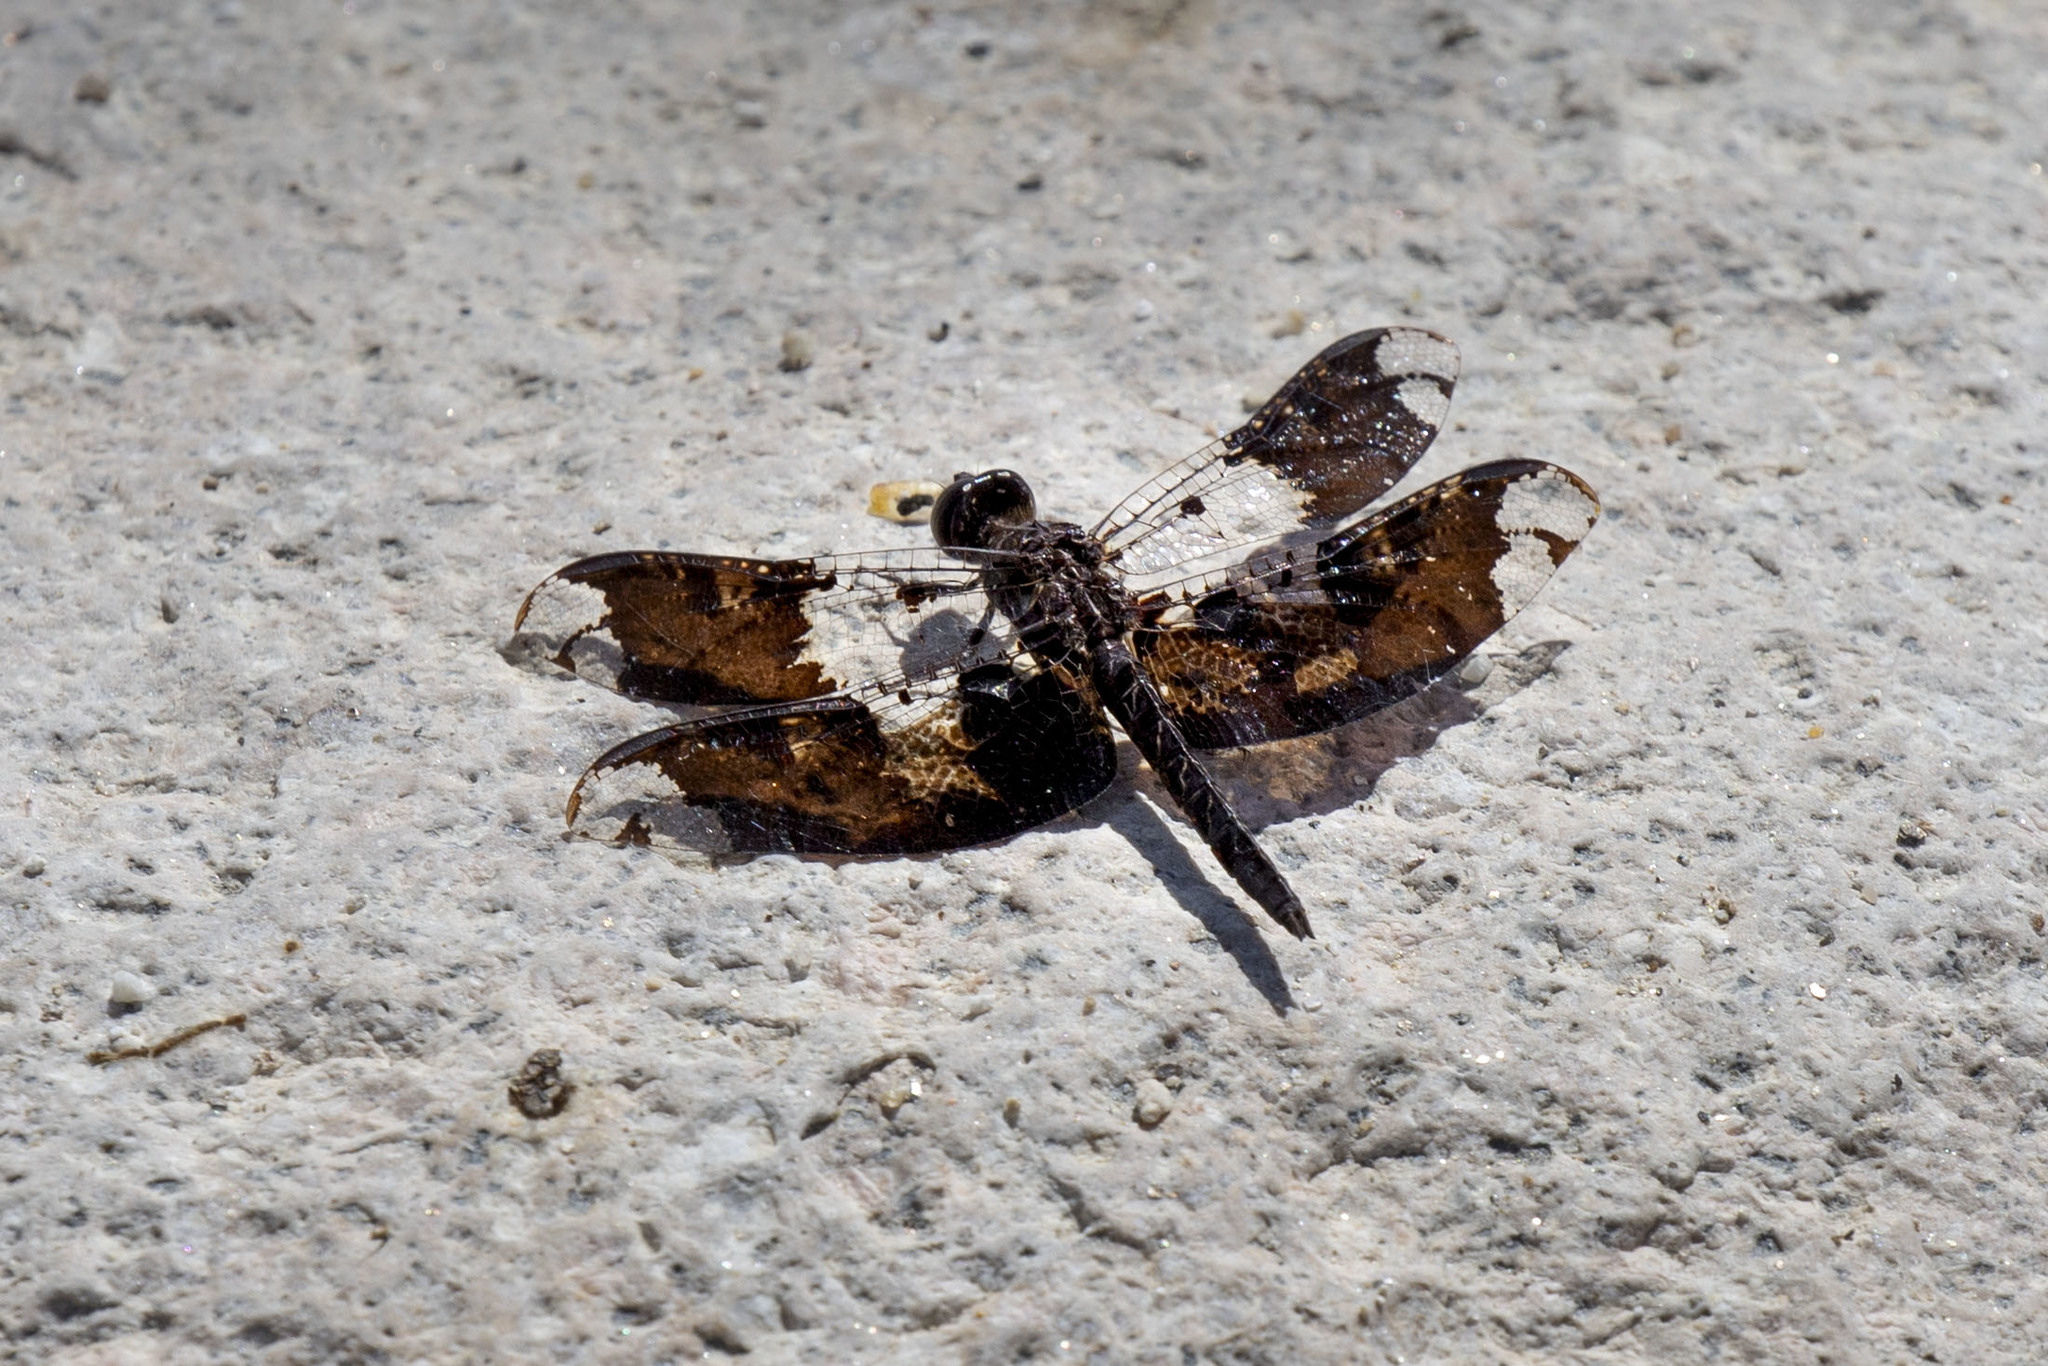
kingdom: Animalia
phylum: Arthropoda
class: Insecta
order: Odonata
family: Libellulidae
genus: Pseudoleon
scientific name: Pseudoleon superbus
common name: Filigree skimmer
